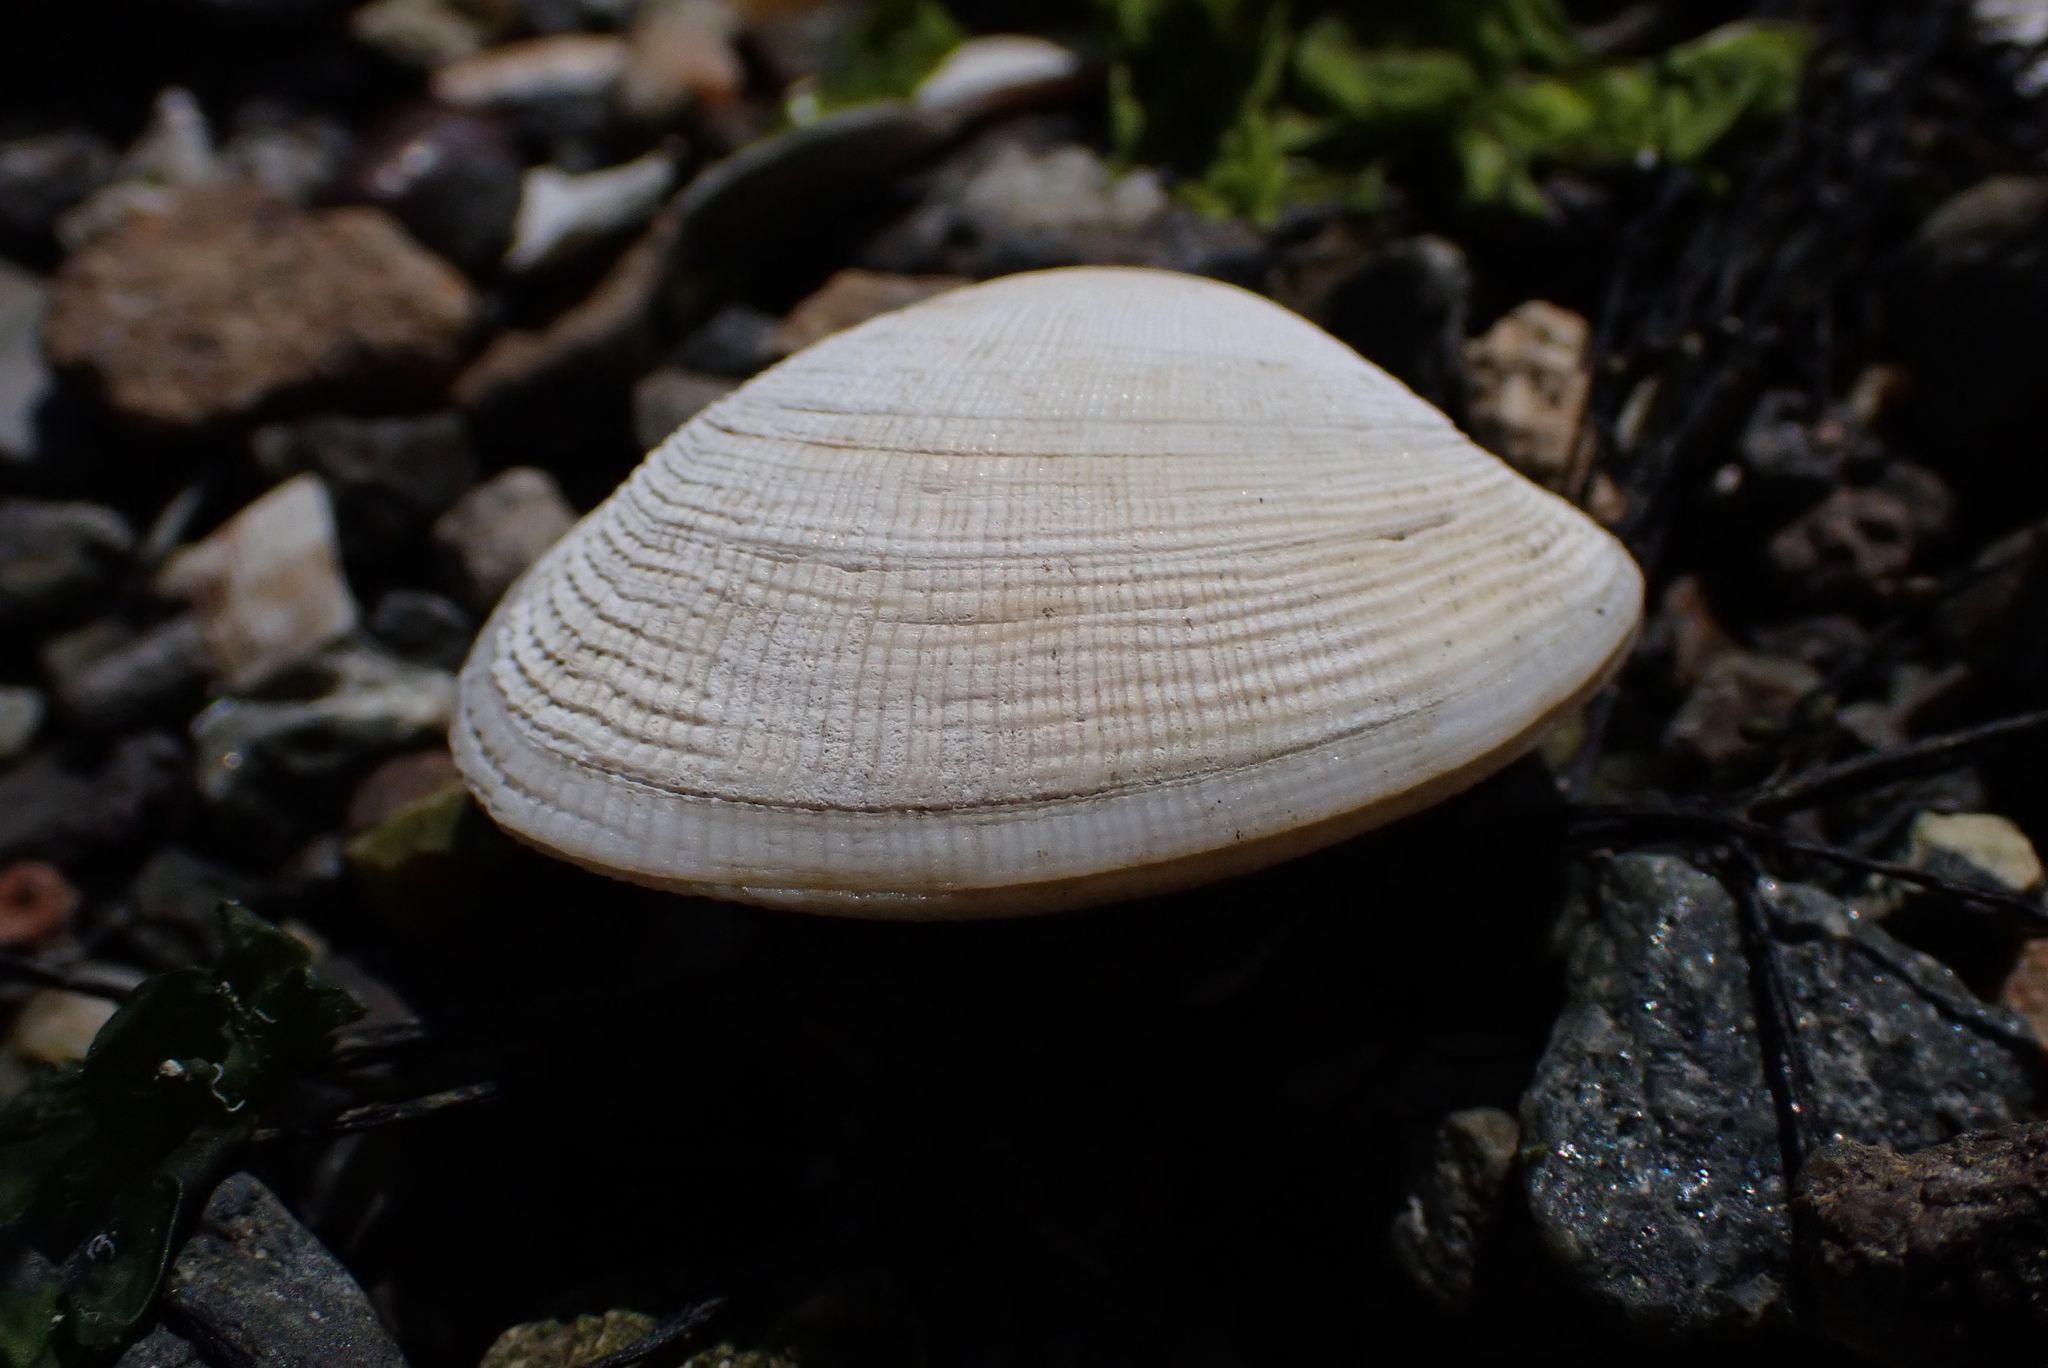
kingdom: Animalia
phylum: Mollusca
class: Bivalvia
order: Venerida
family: Veneridae
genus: Ruditapes
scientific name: Ruditapes philippinarum
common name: Manila clam
